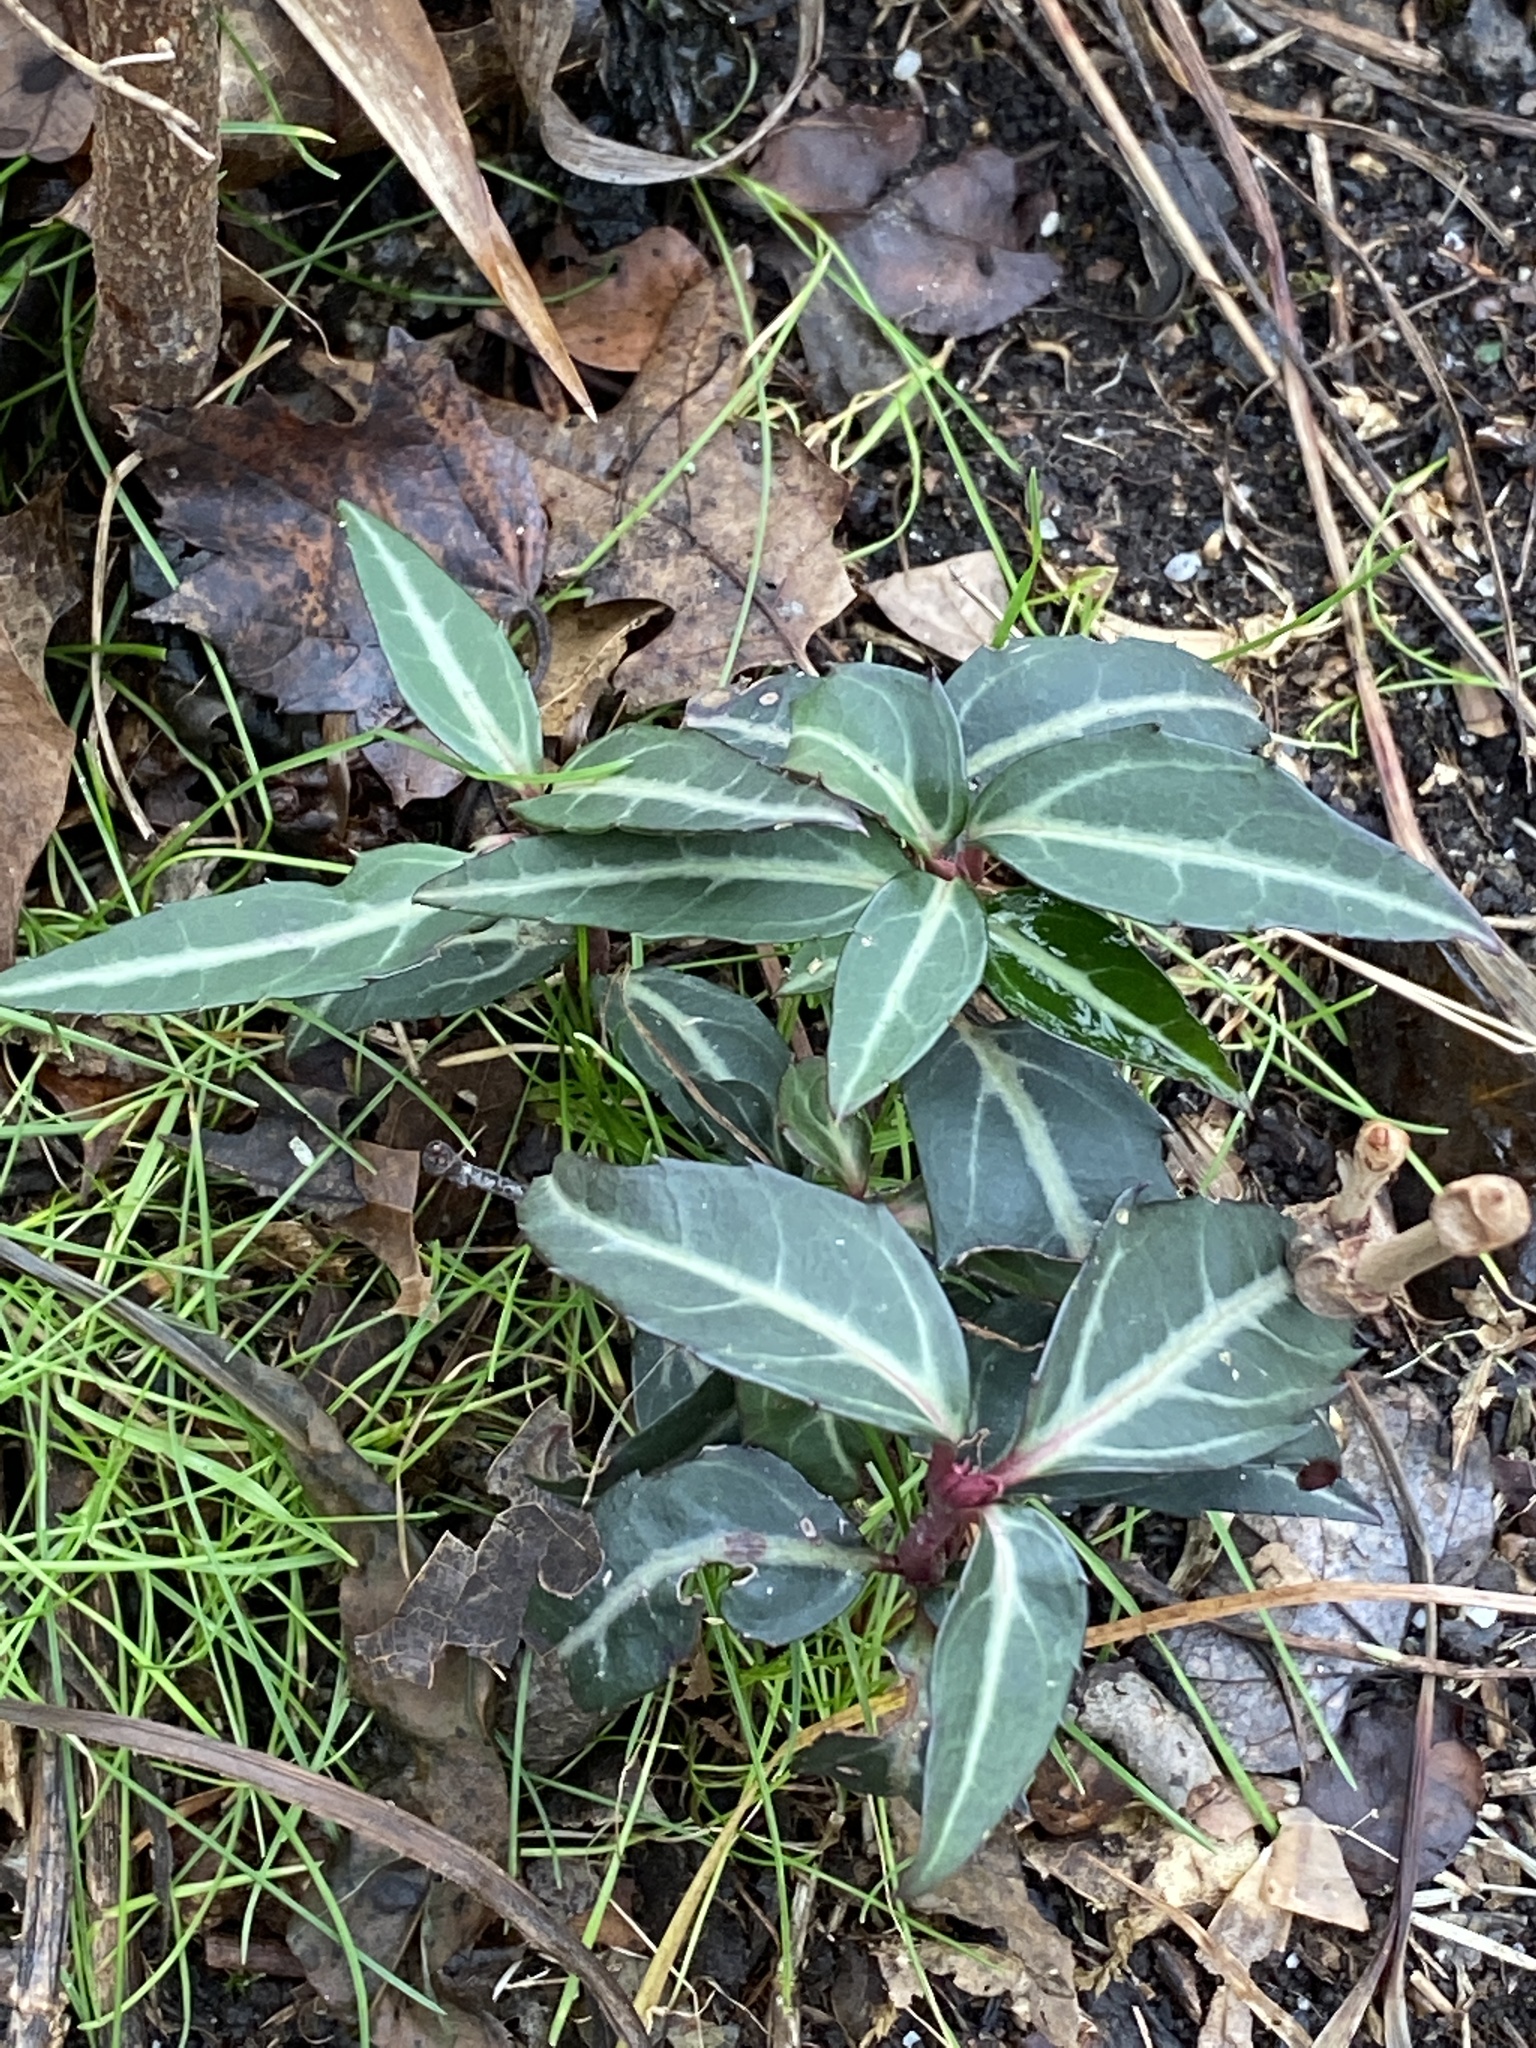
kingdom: Plantae
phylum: Tracheophyta
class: Magnoliopsida
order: Ericales
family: Ericaceae
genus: Chimaphila
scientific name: Chimaphila maculata
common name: Spotted pipsissewa
